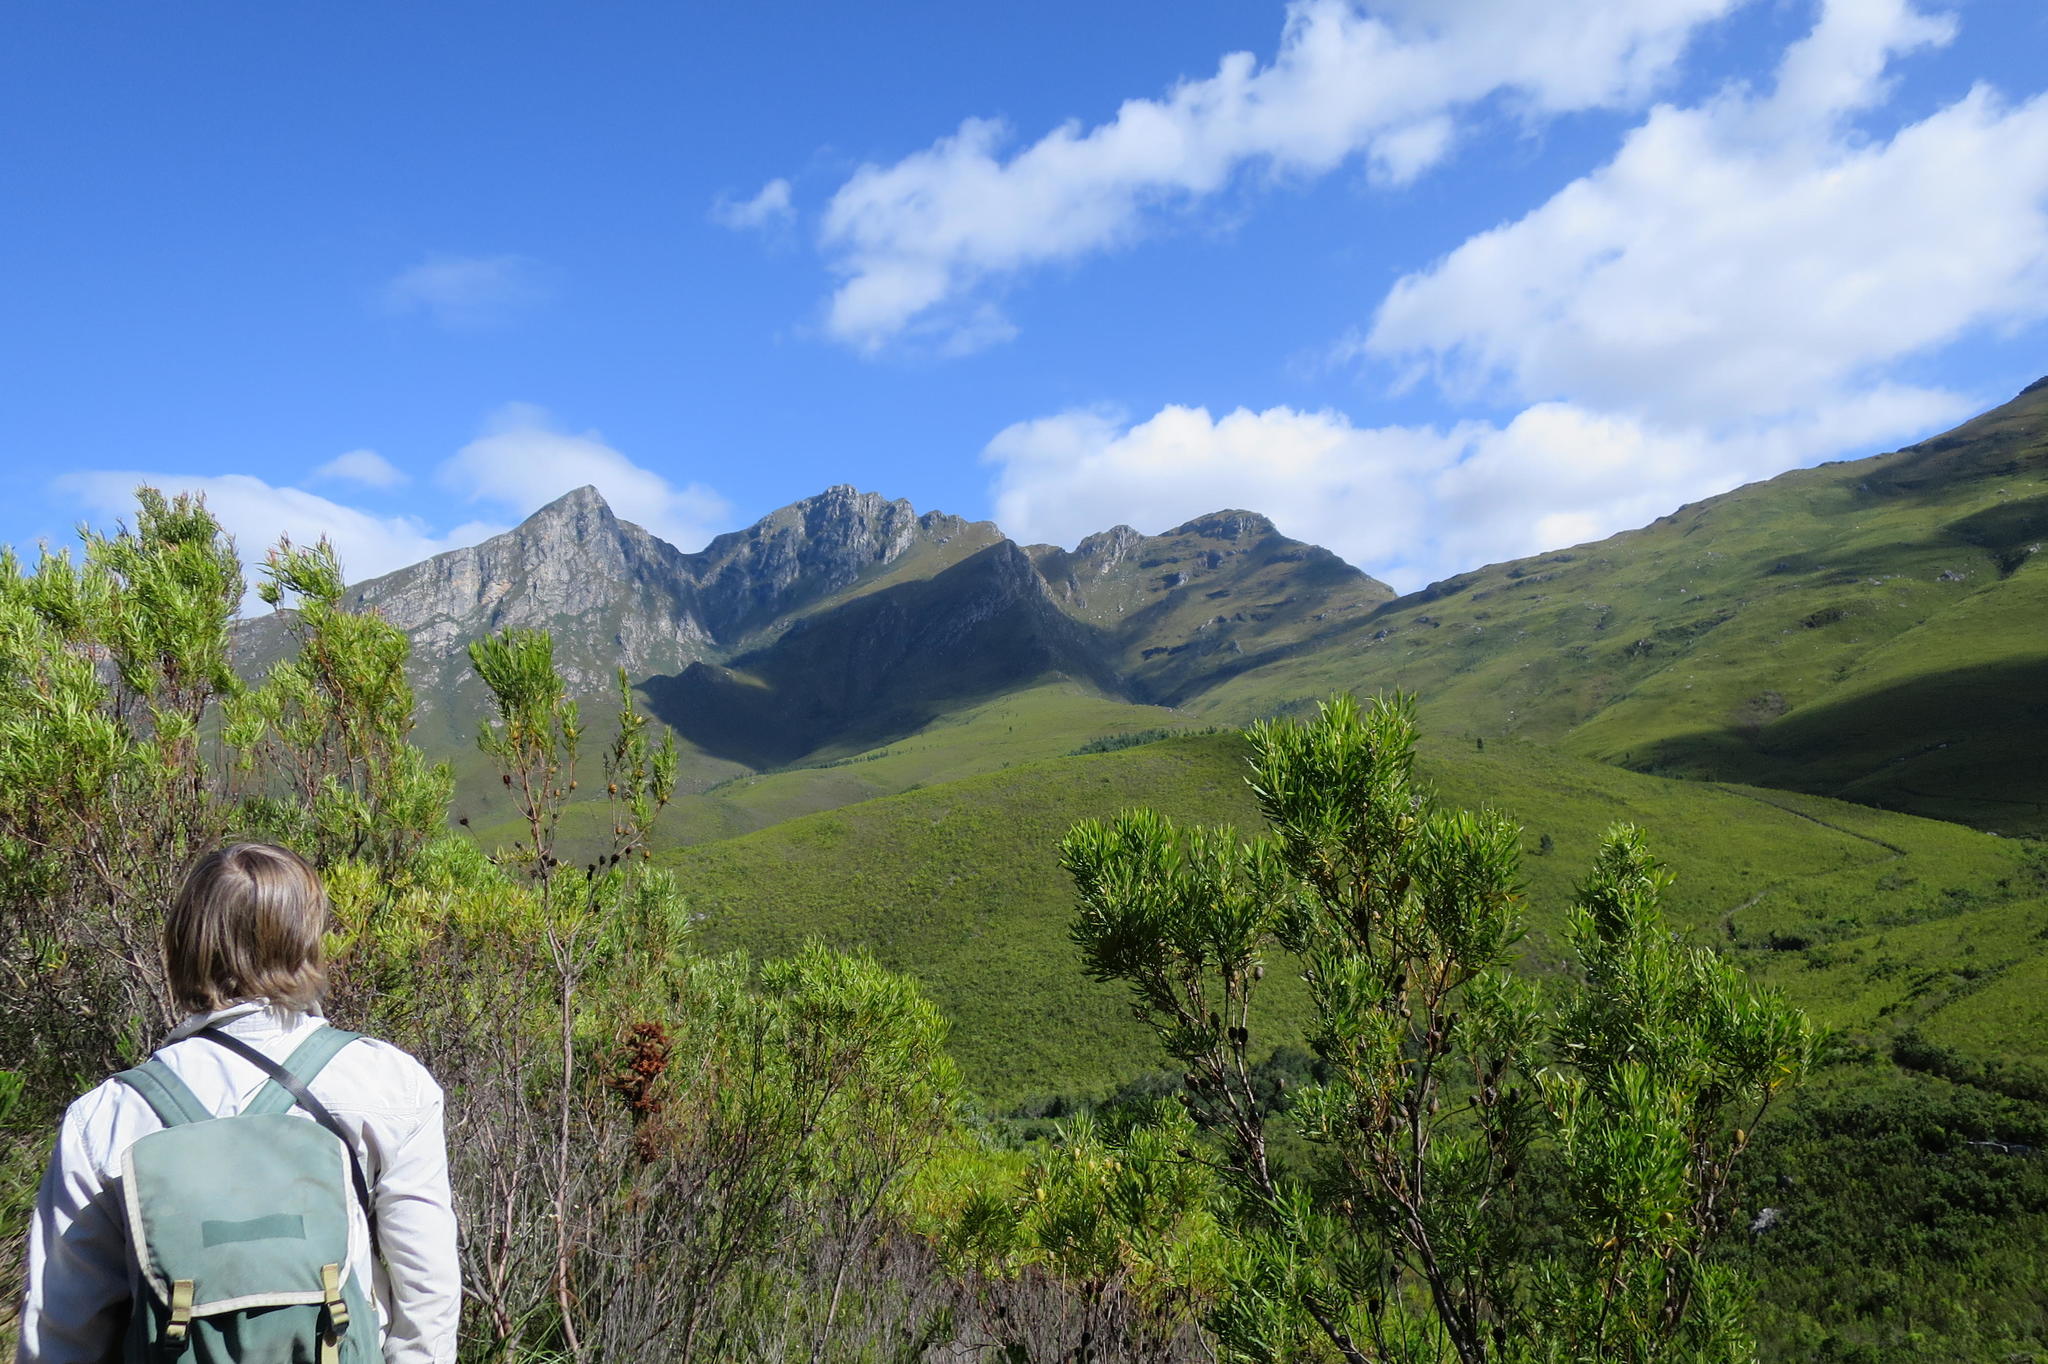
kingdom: Plantae
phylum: Tracheophyta
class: Magnoliopsida
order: Proteales
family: Proteaceae
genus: Leucadendron
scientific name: Leucadendron eucalyptifolium
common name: Gum-leaved conebush
